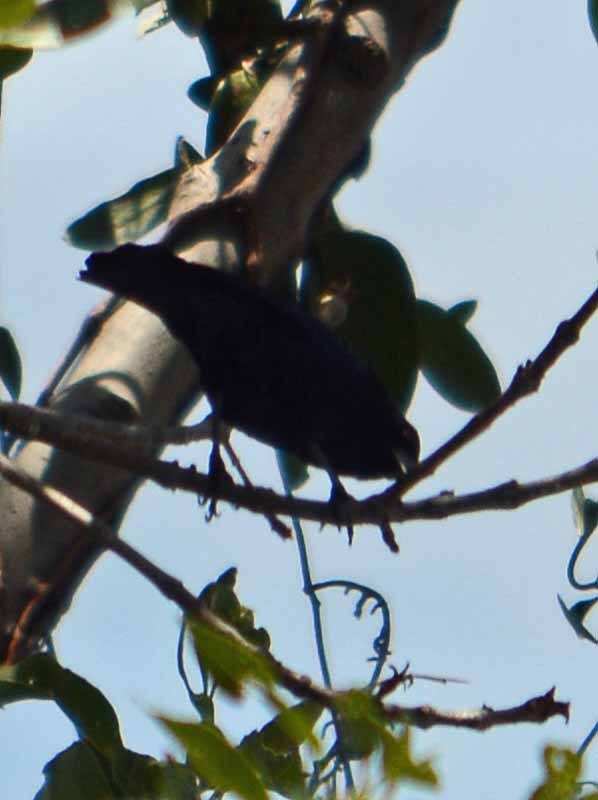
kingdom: Animalia
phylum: Chordata
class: Aves
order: Passeriformes
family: Icteridae
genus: Molothrus
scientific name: Molothrus aeneus
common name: Bronzed cowbird
